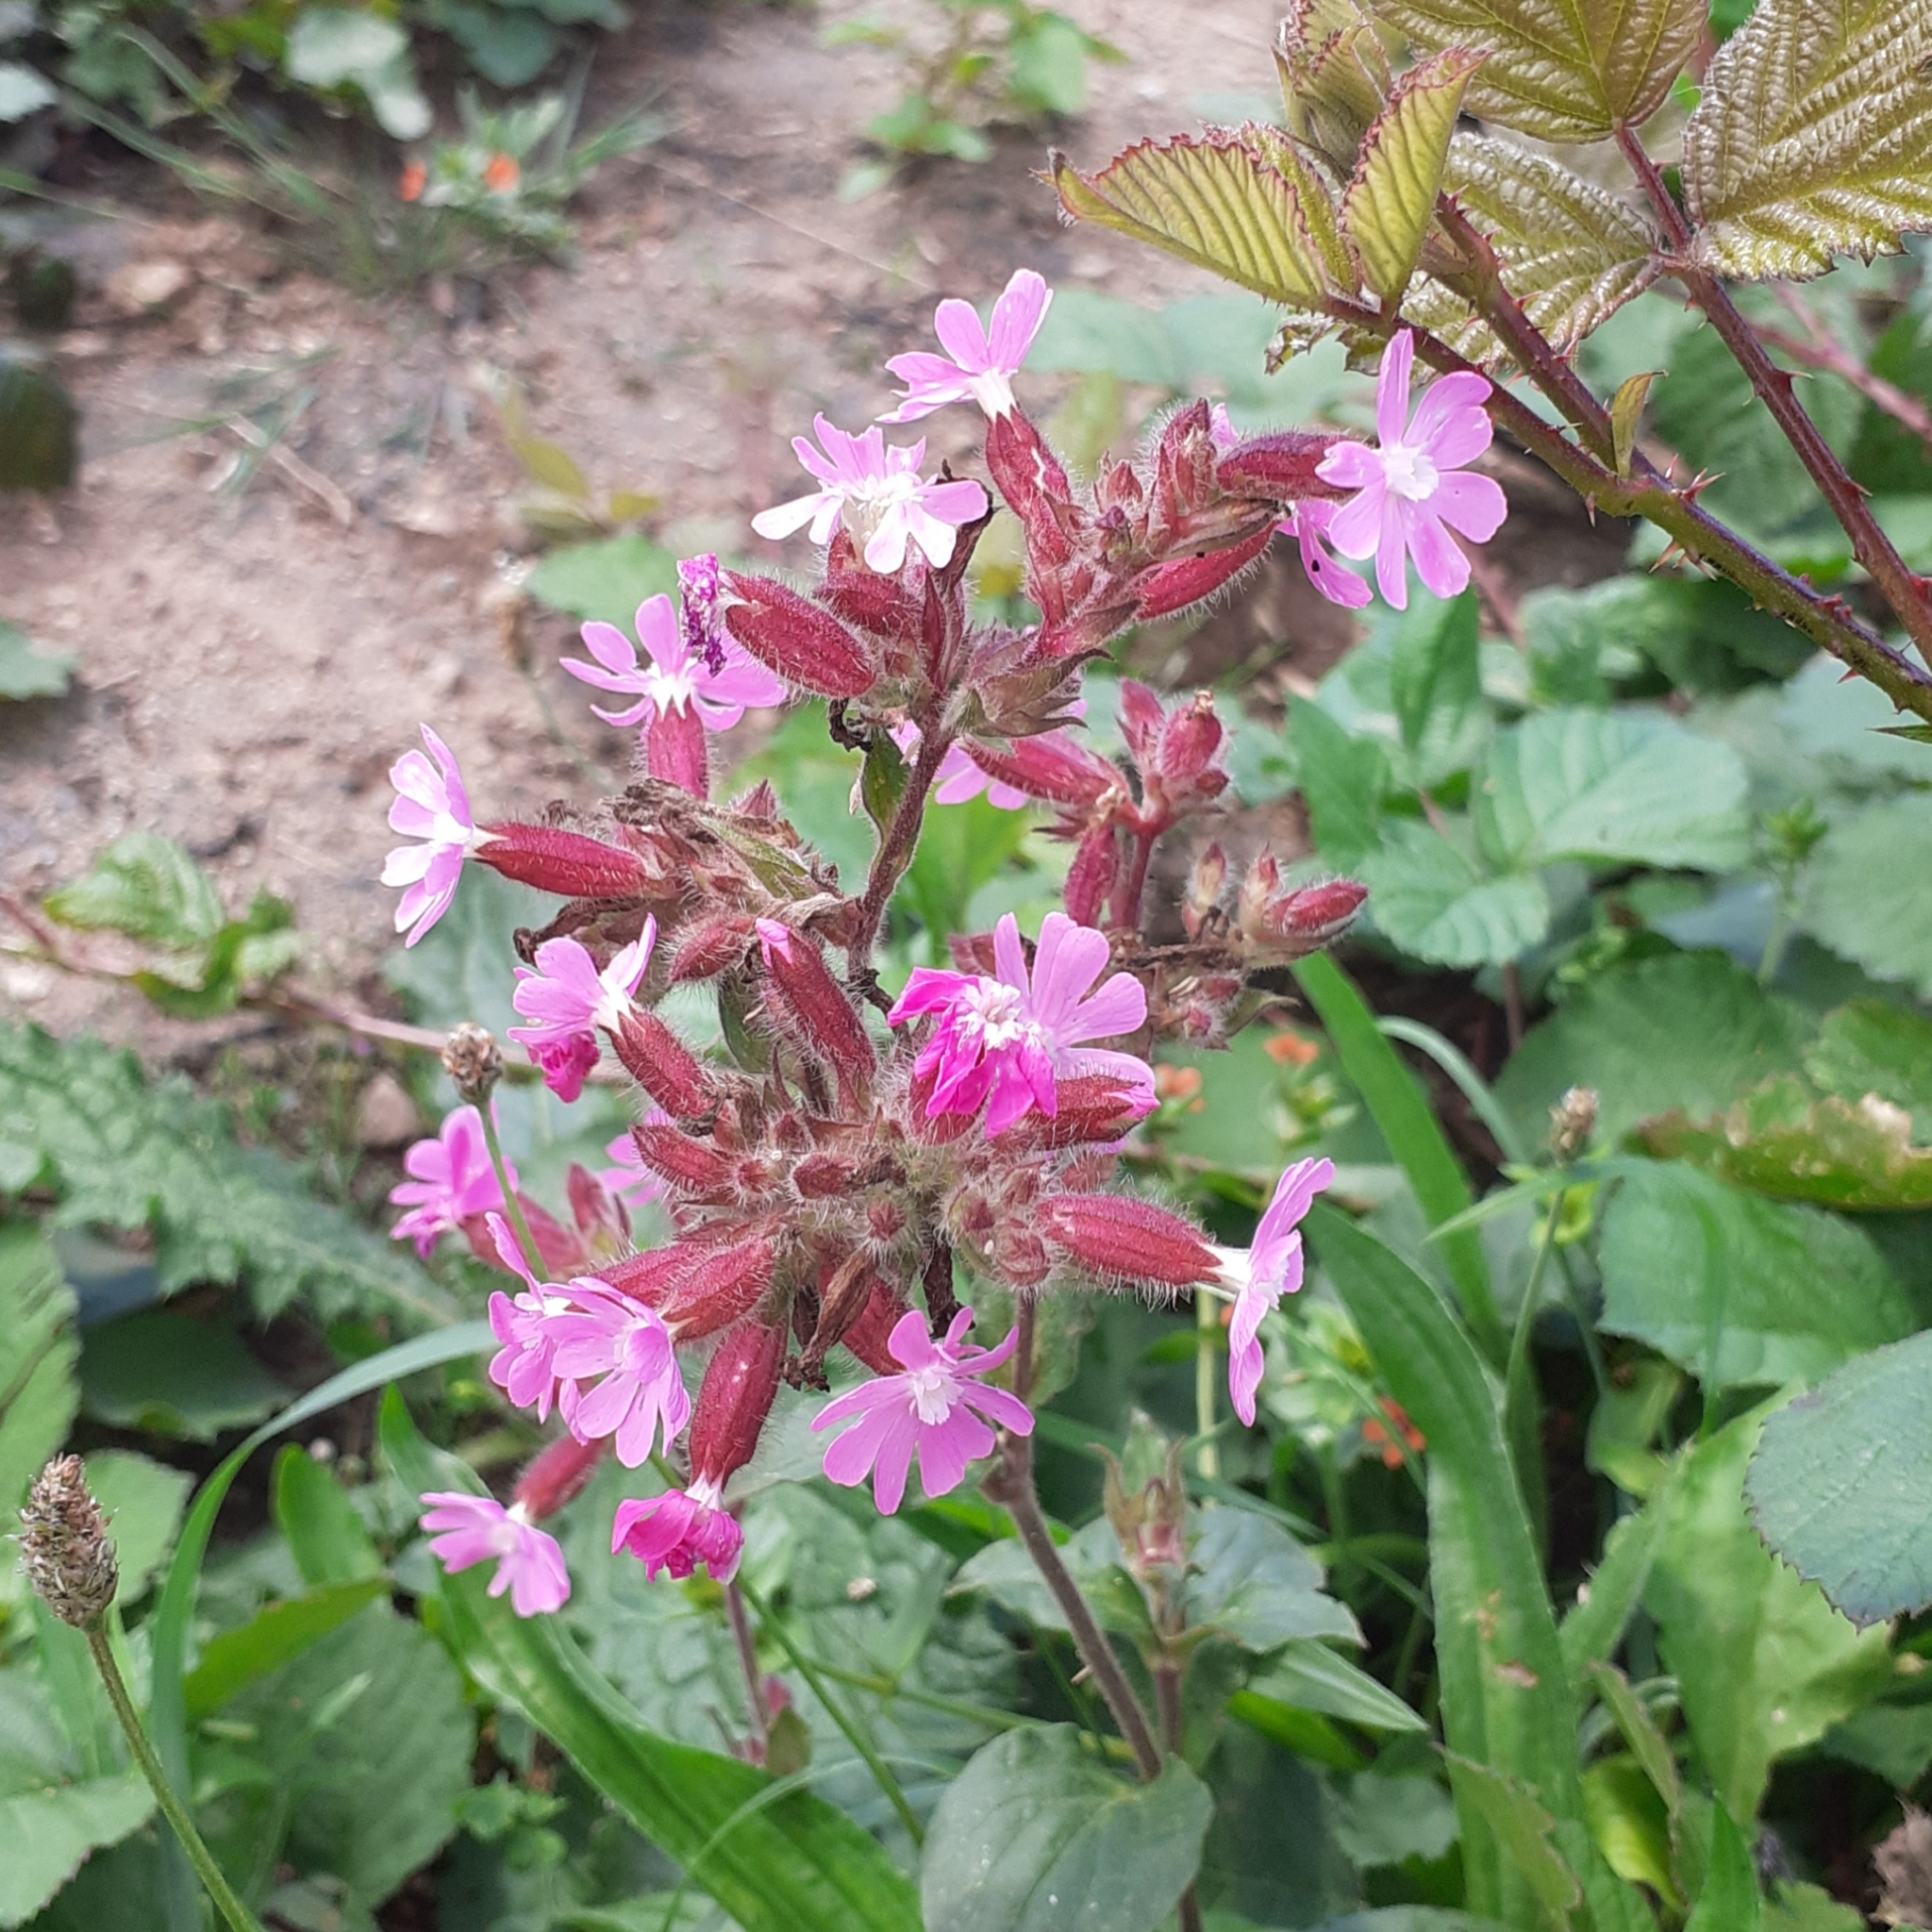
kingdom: Plantae
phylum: Tracheophyta
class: Magnoliopsida
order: Caryophyllales
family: Caryophyllaceae
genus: Silene
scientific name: Silene dioica
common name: Red campion
